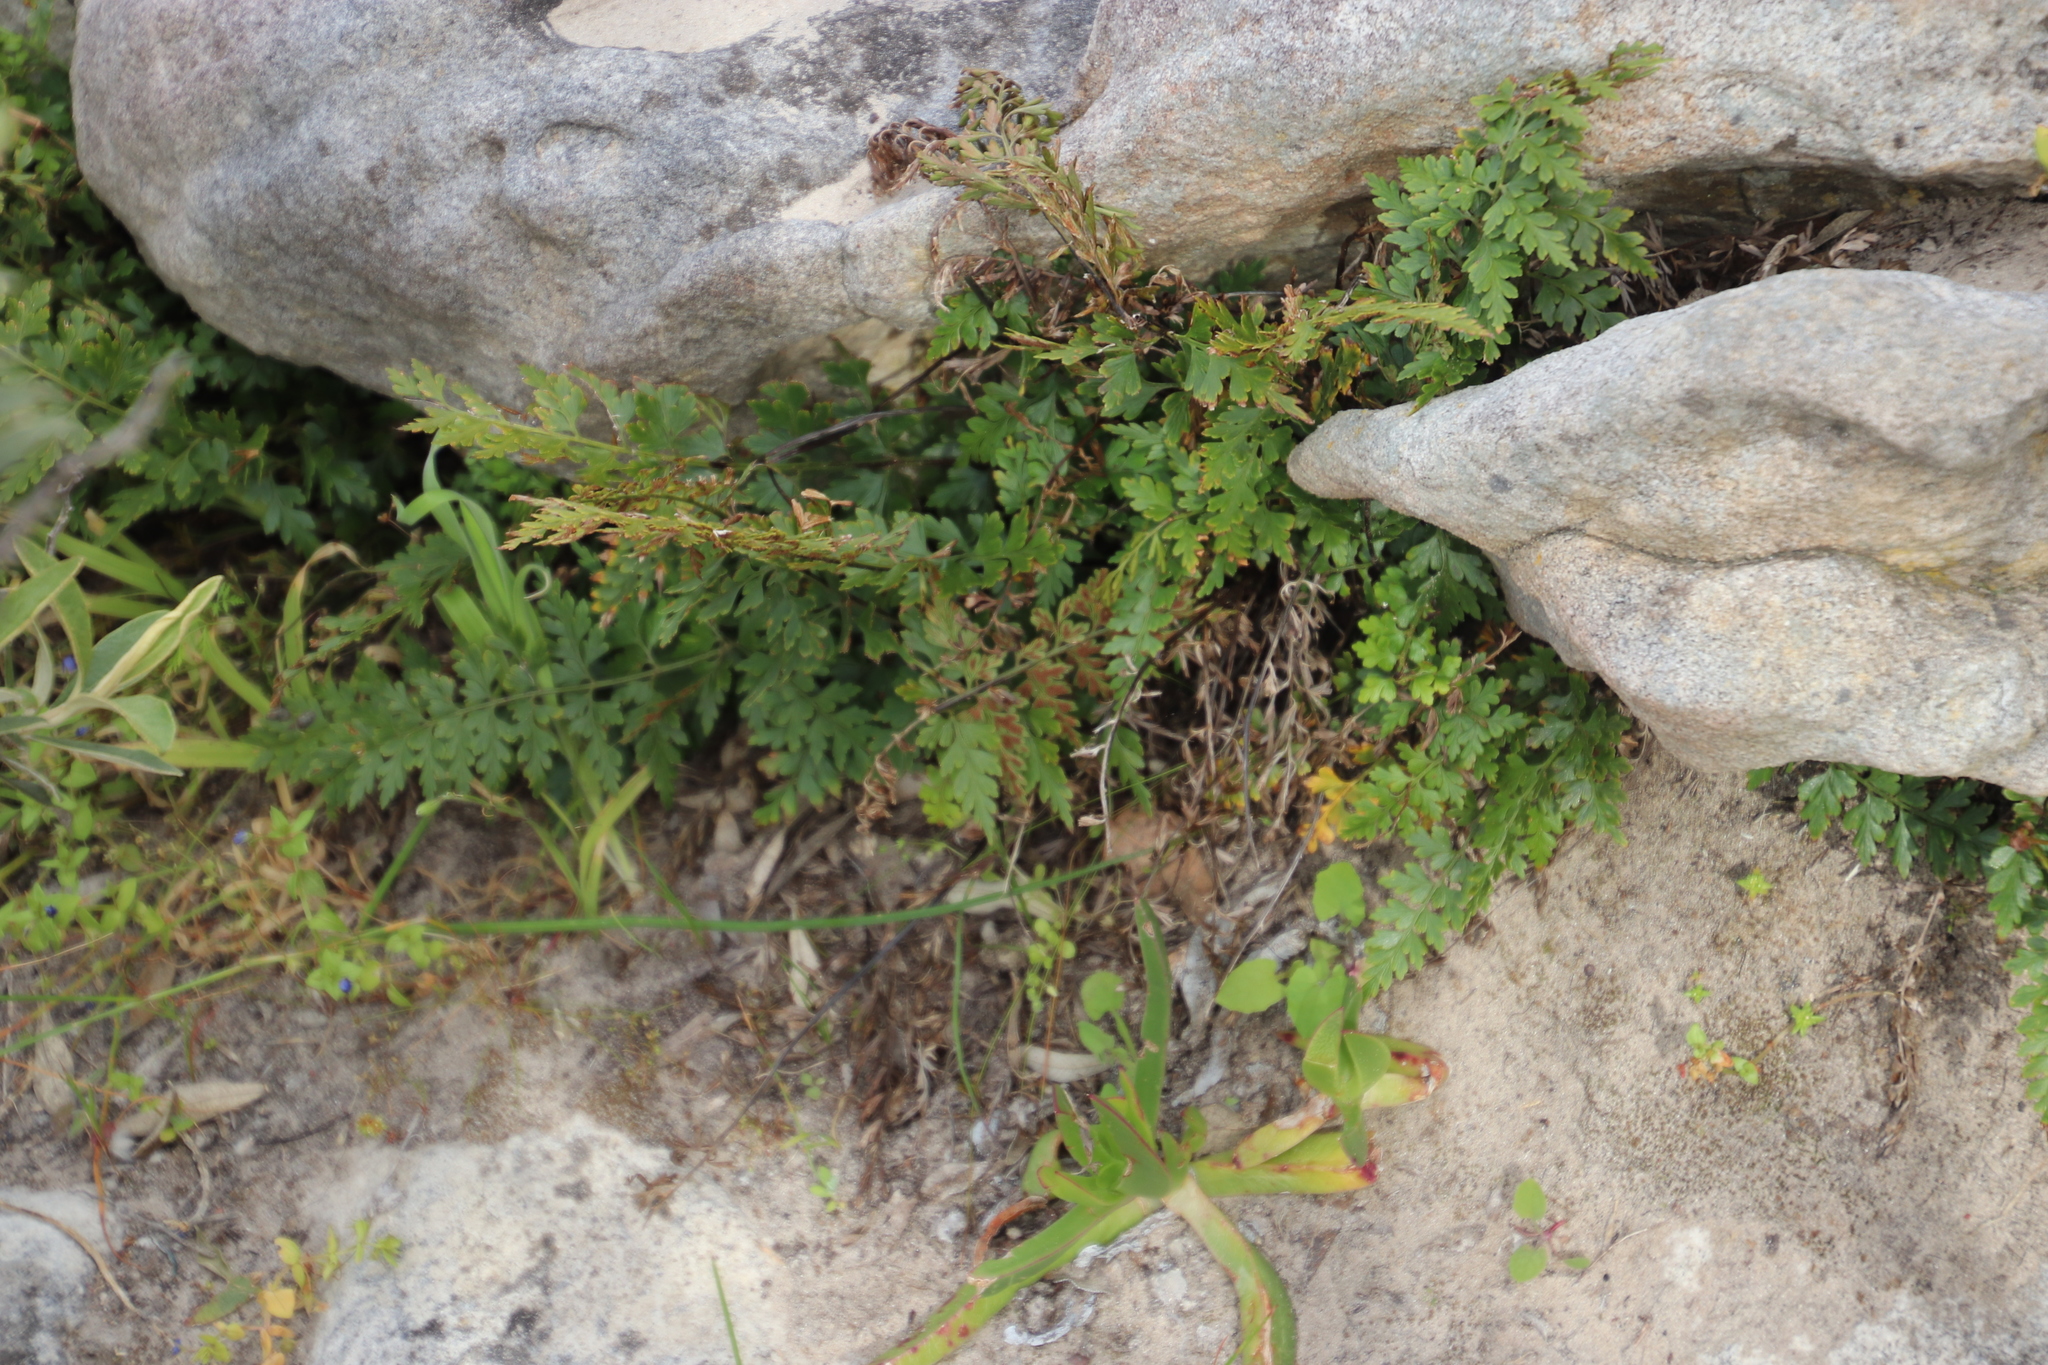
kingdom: Plantae
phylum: Tracheophyta
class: Polypodiopsida
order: Polypodiales
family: Aspleniaceae
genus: Asplenium
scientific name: Asplenium aethiopicum
